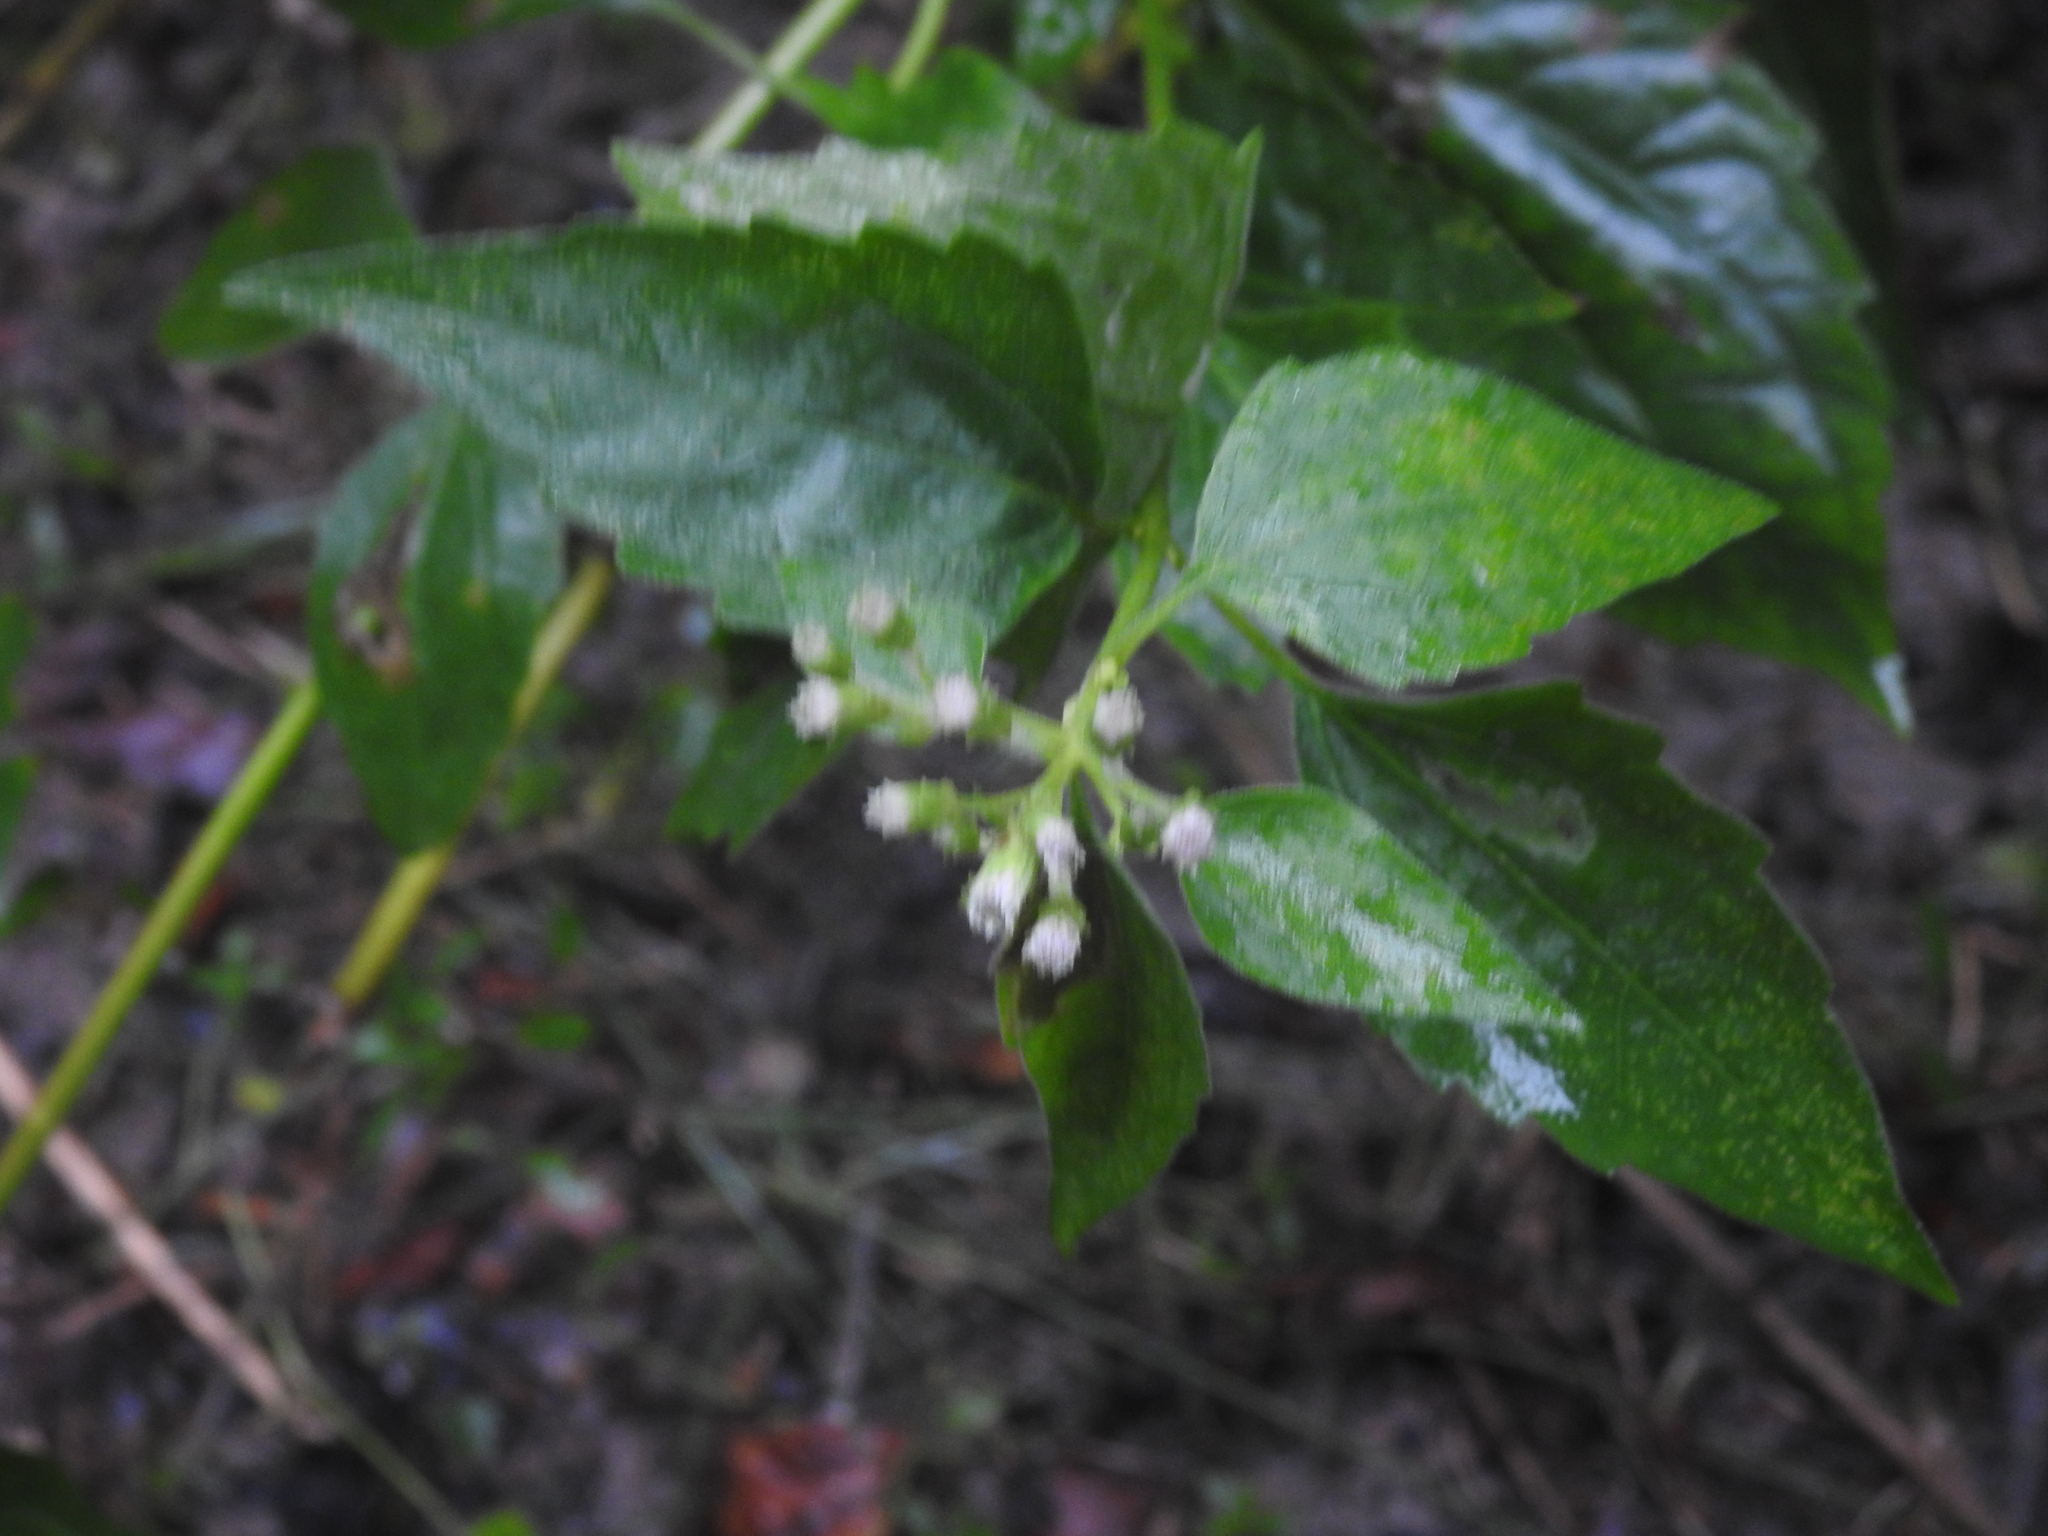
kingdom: Plantae
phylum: Tracheophyta
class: Magnoliopsida
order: Asterales
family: Asteraceae
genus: Chromolaena
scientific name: Chromolaena odorata
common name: Siamweed
